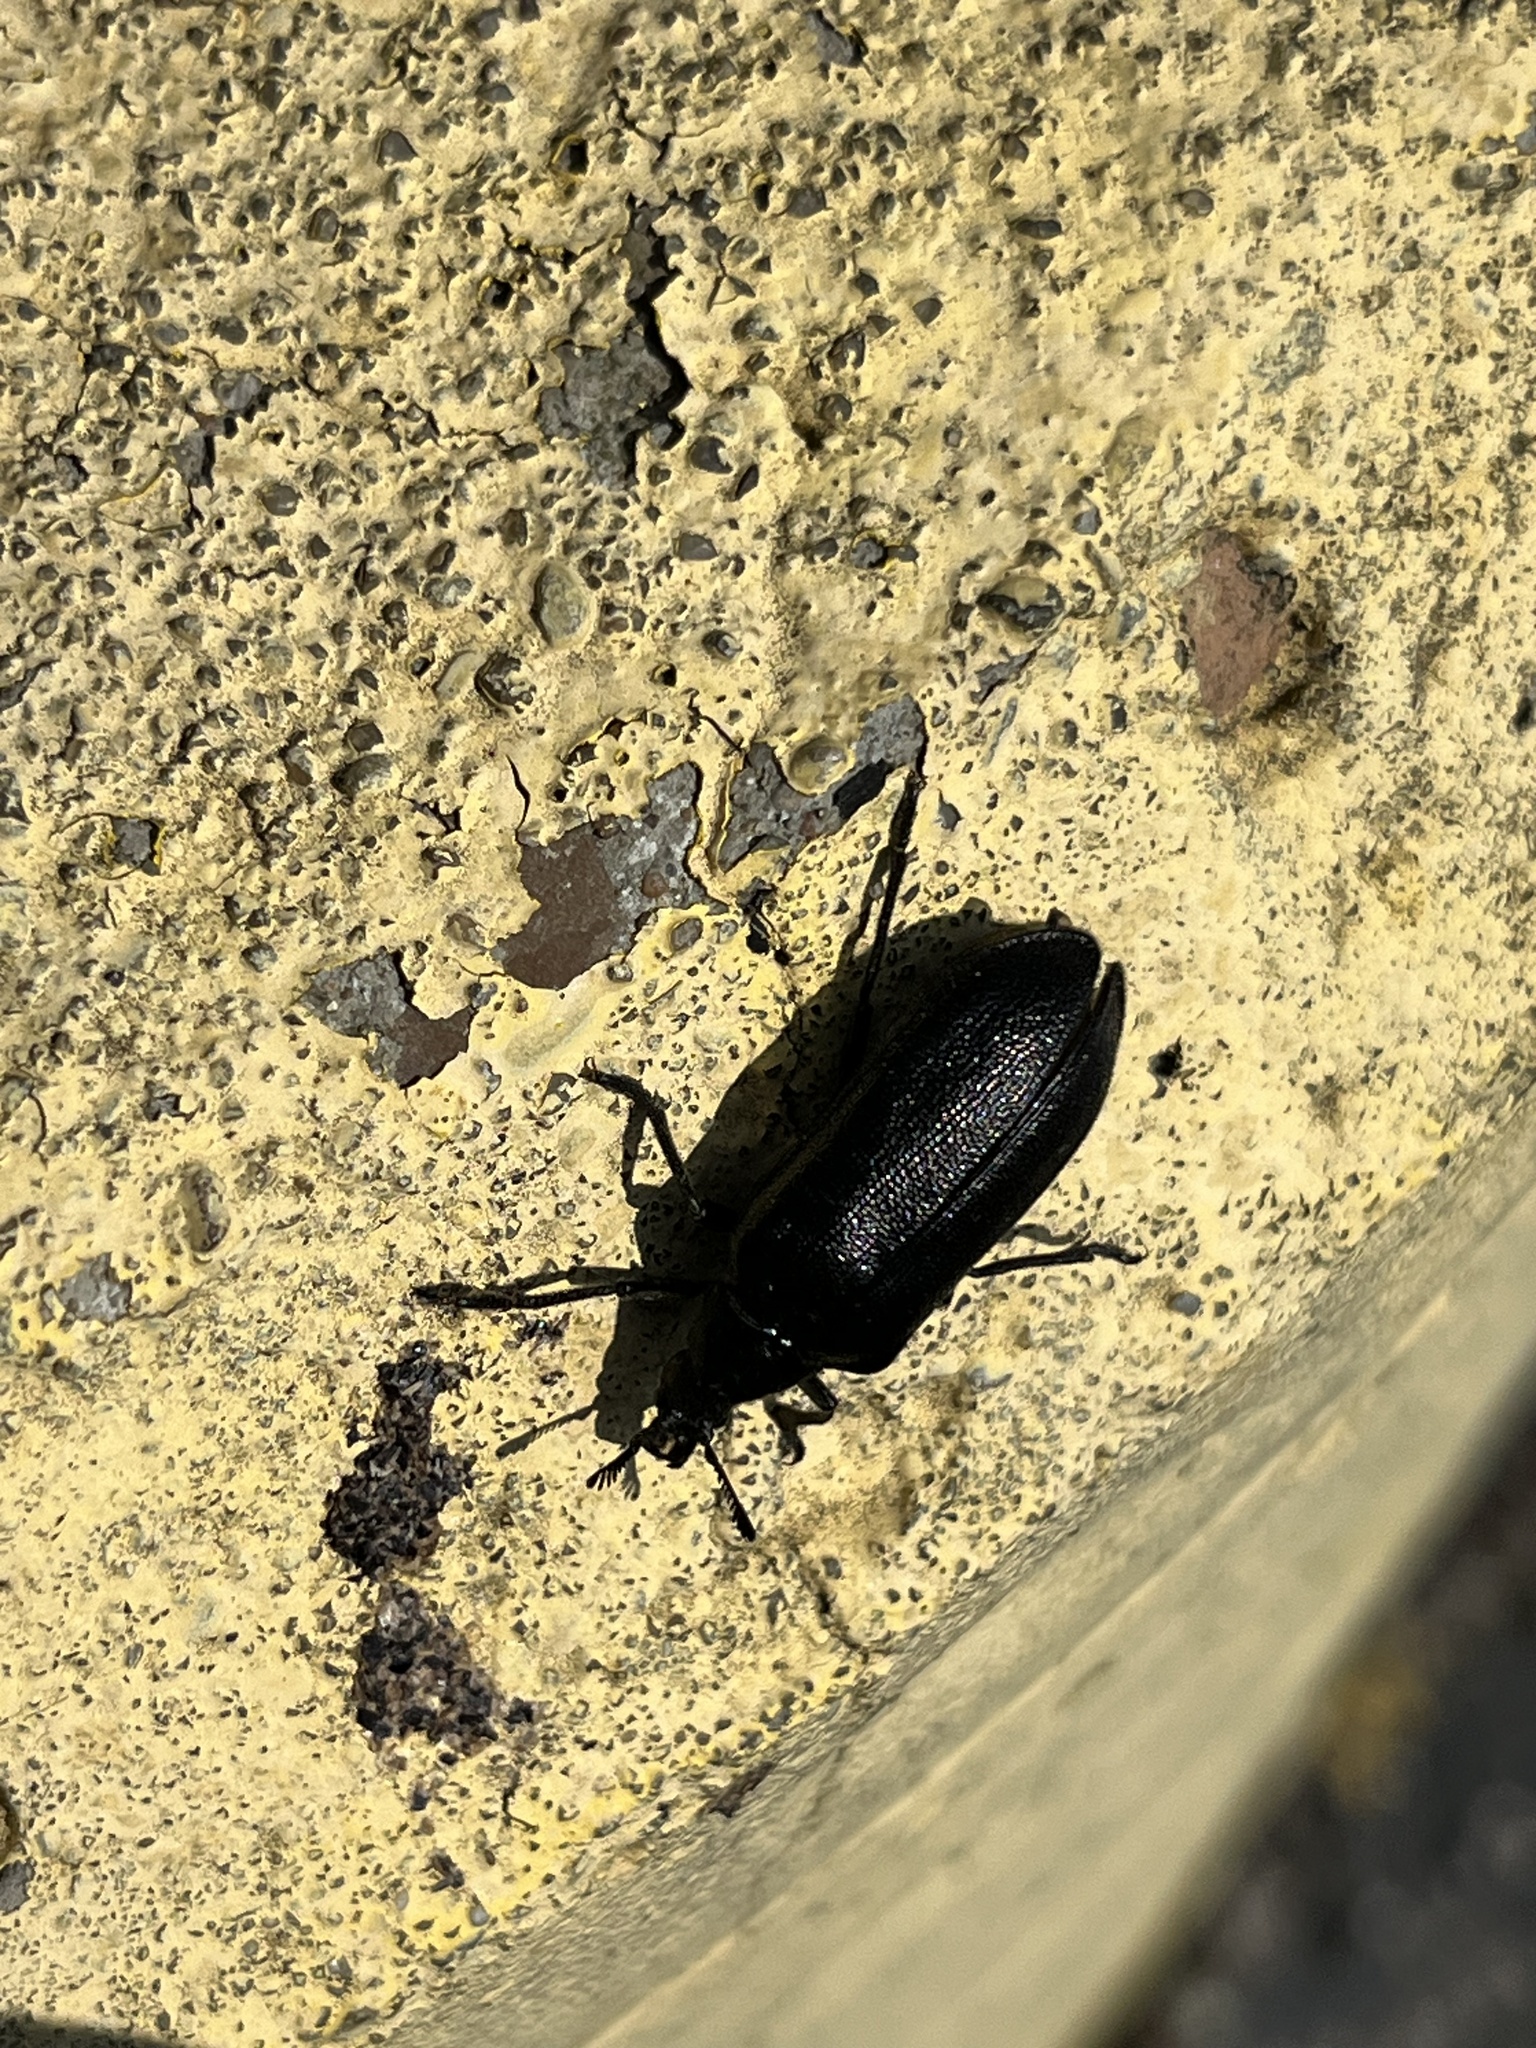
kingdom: Animalia
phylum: Arthropoda
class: Insecta
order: Coleoptera
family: Rhipiceridae
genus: Sandalus
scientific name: Sandalus niger
